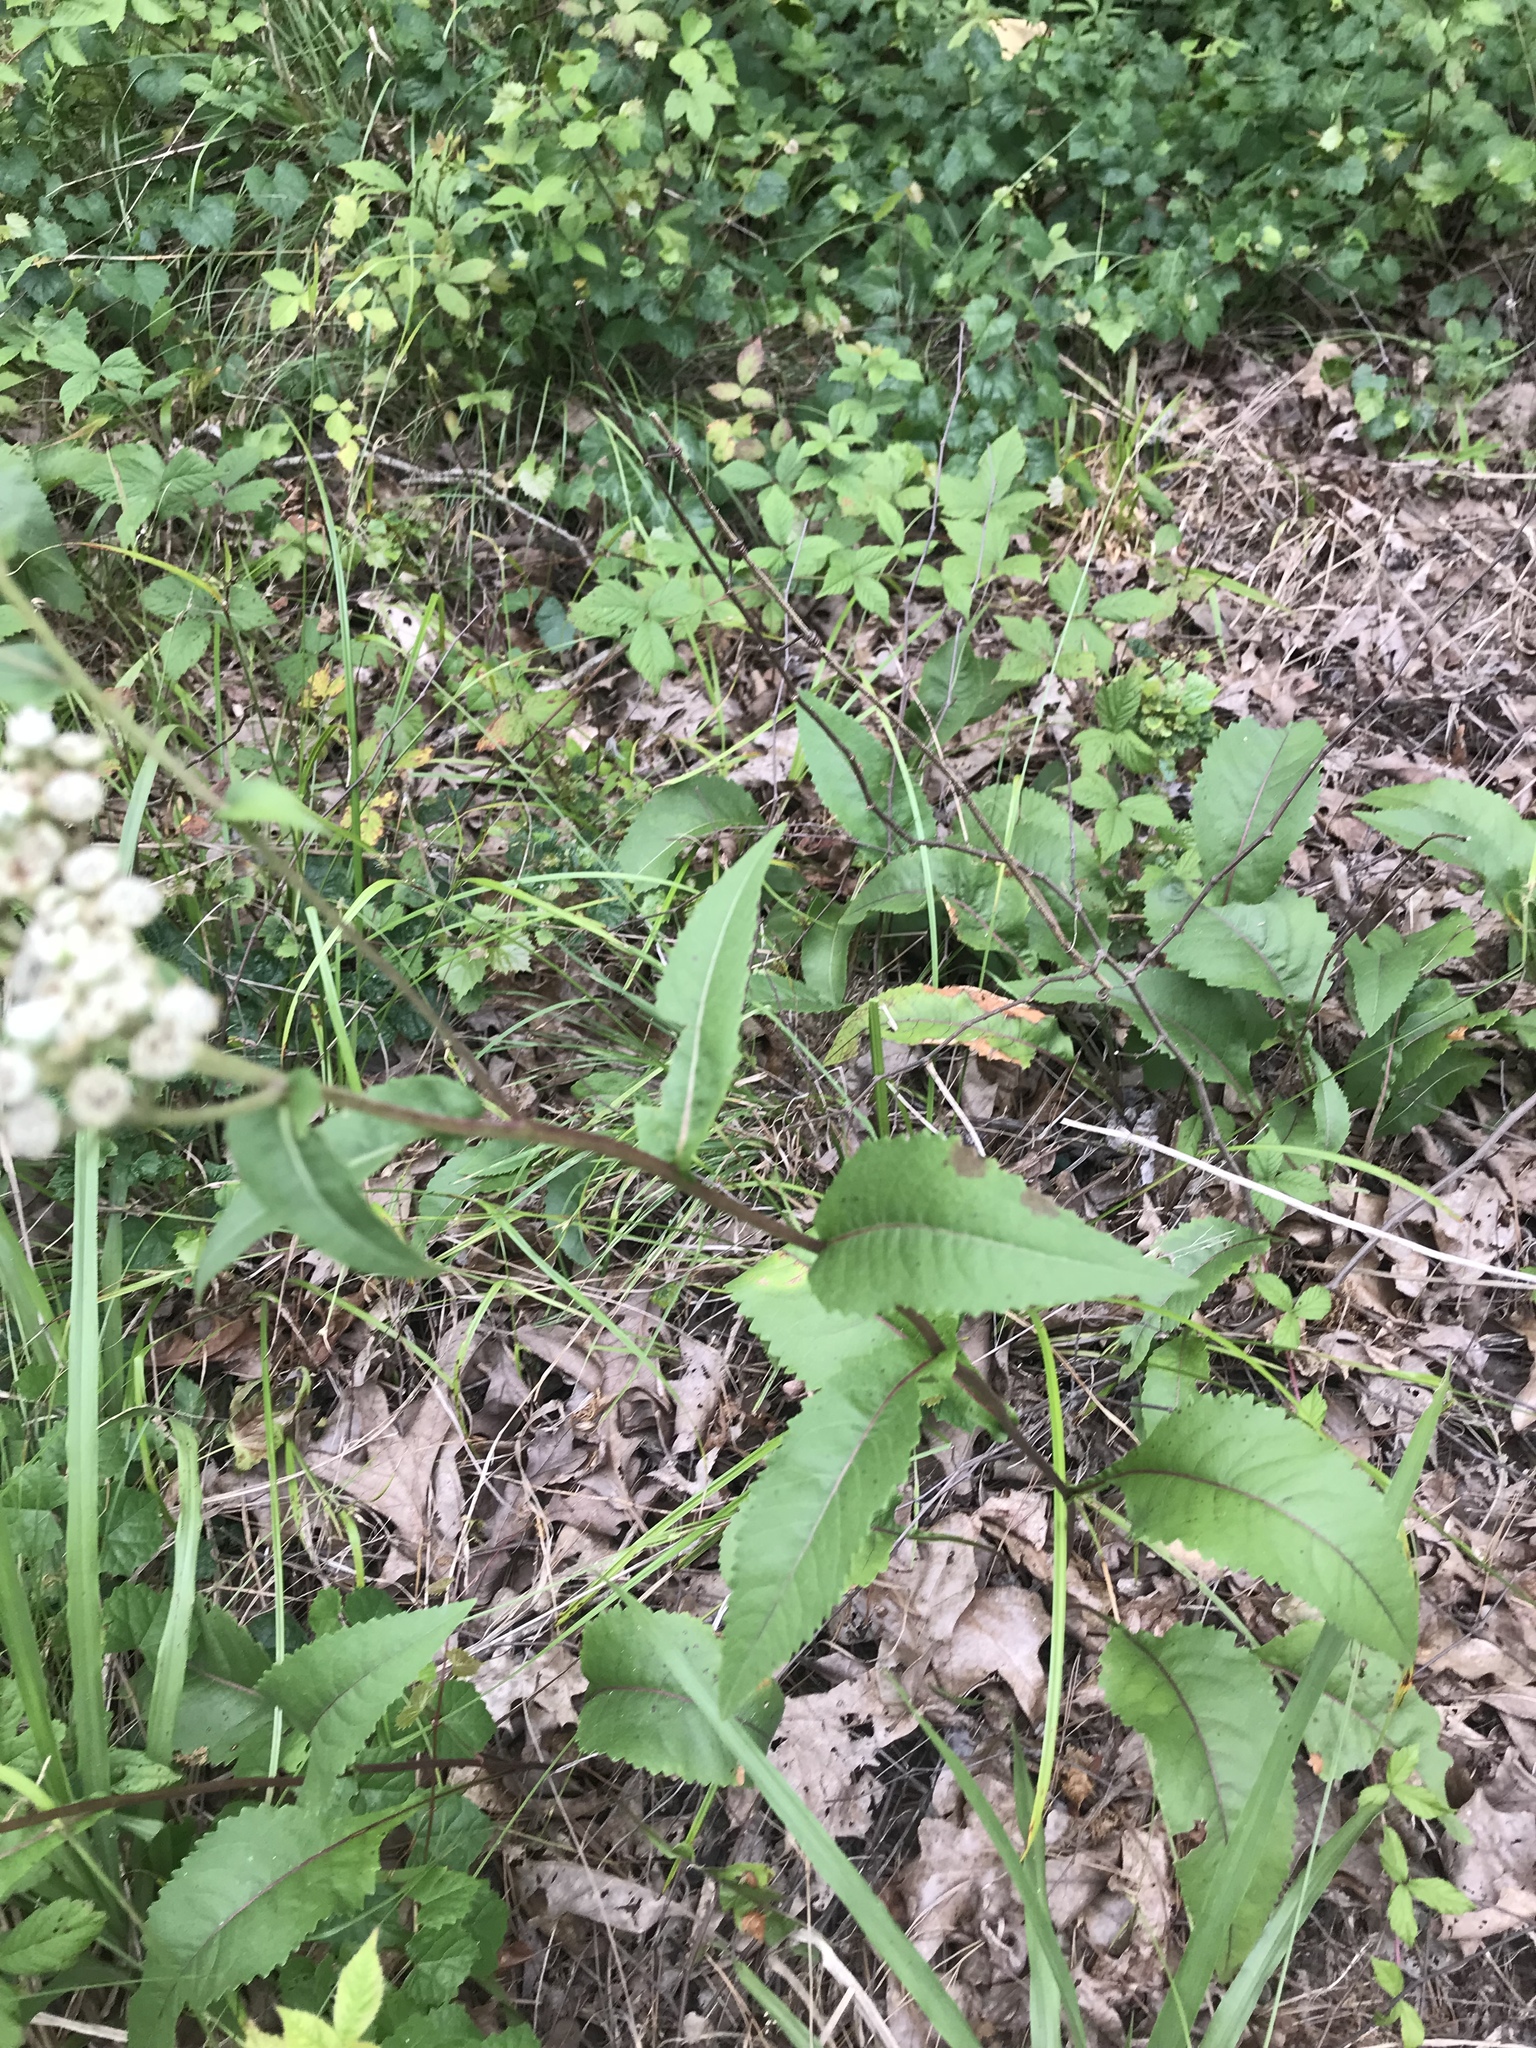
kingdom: Plantae
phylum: Tracheophyta
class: Magnoliopsida
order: Asterales
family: Asteraceae
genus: Parthenium
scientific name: Parthenium integrifolium
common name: American feverfew
